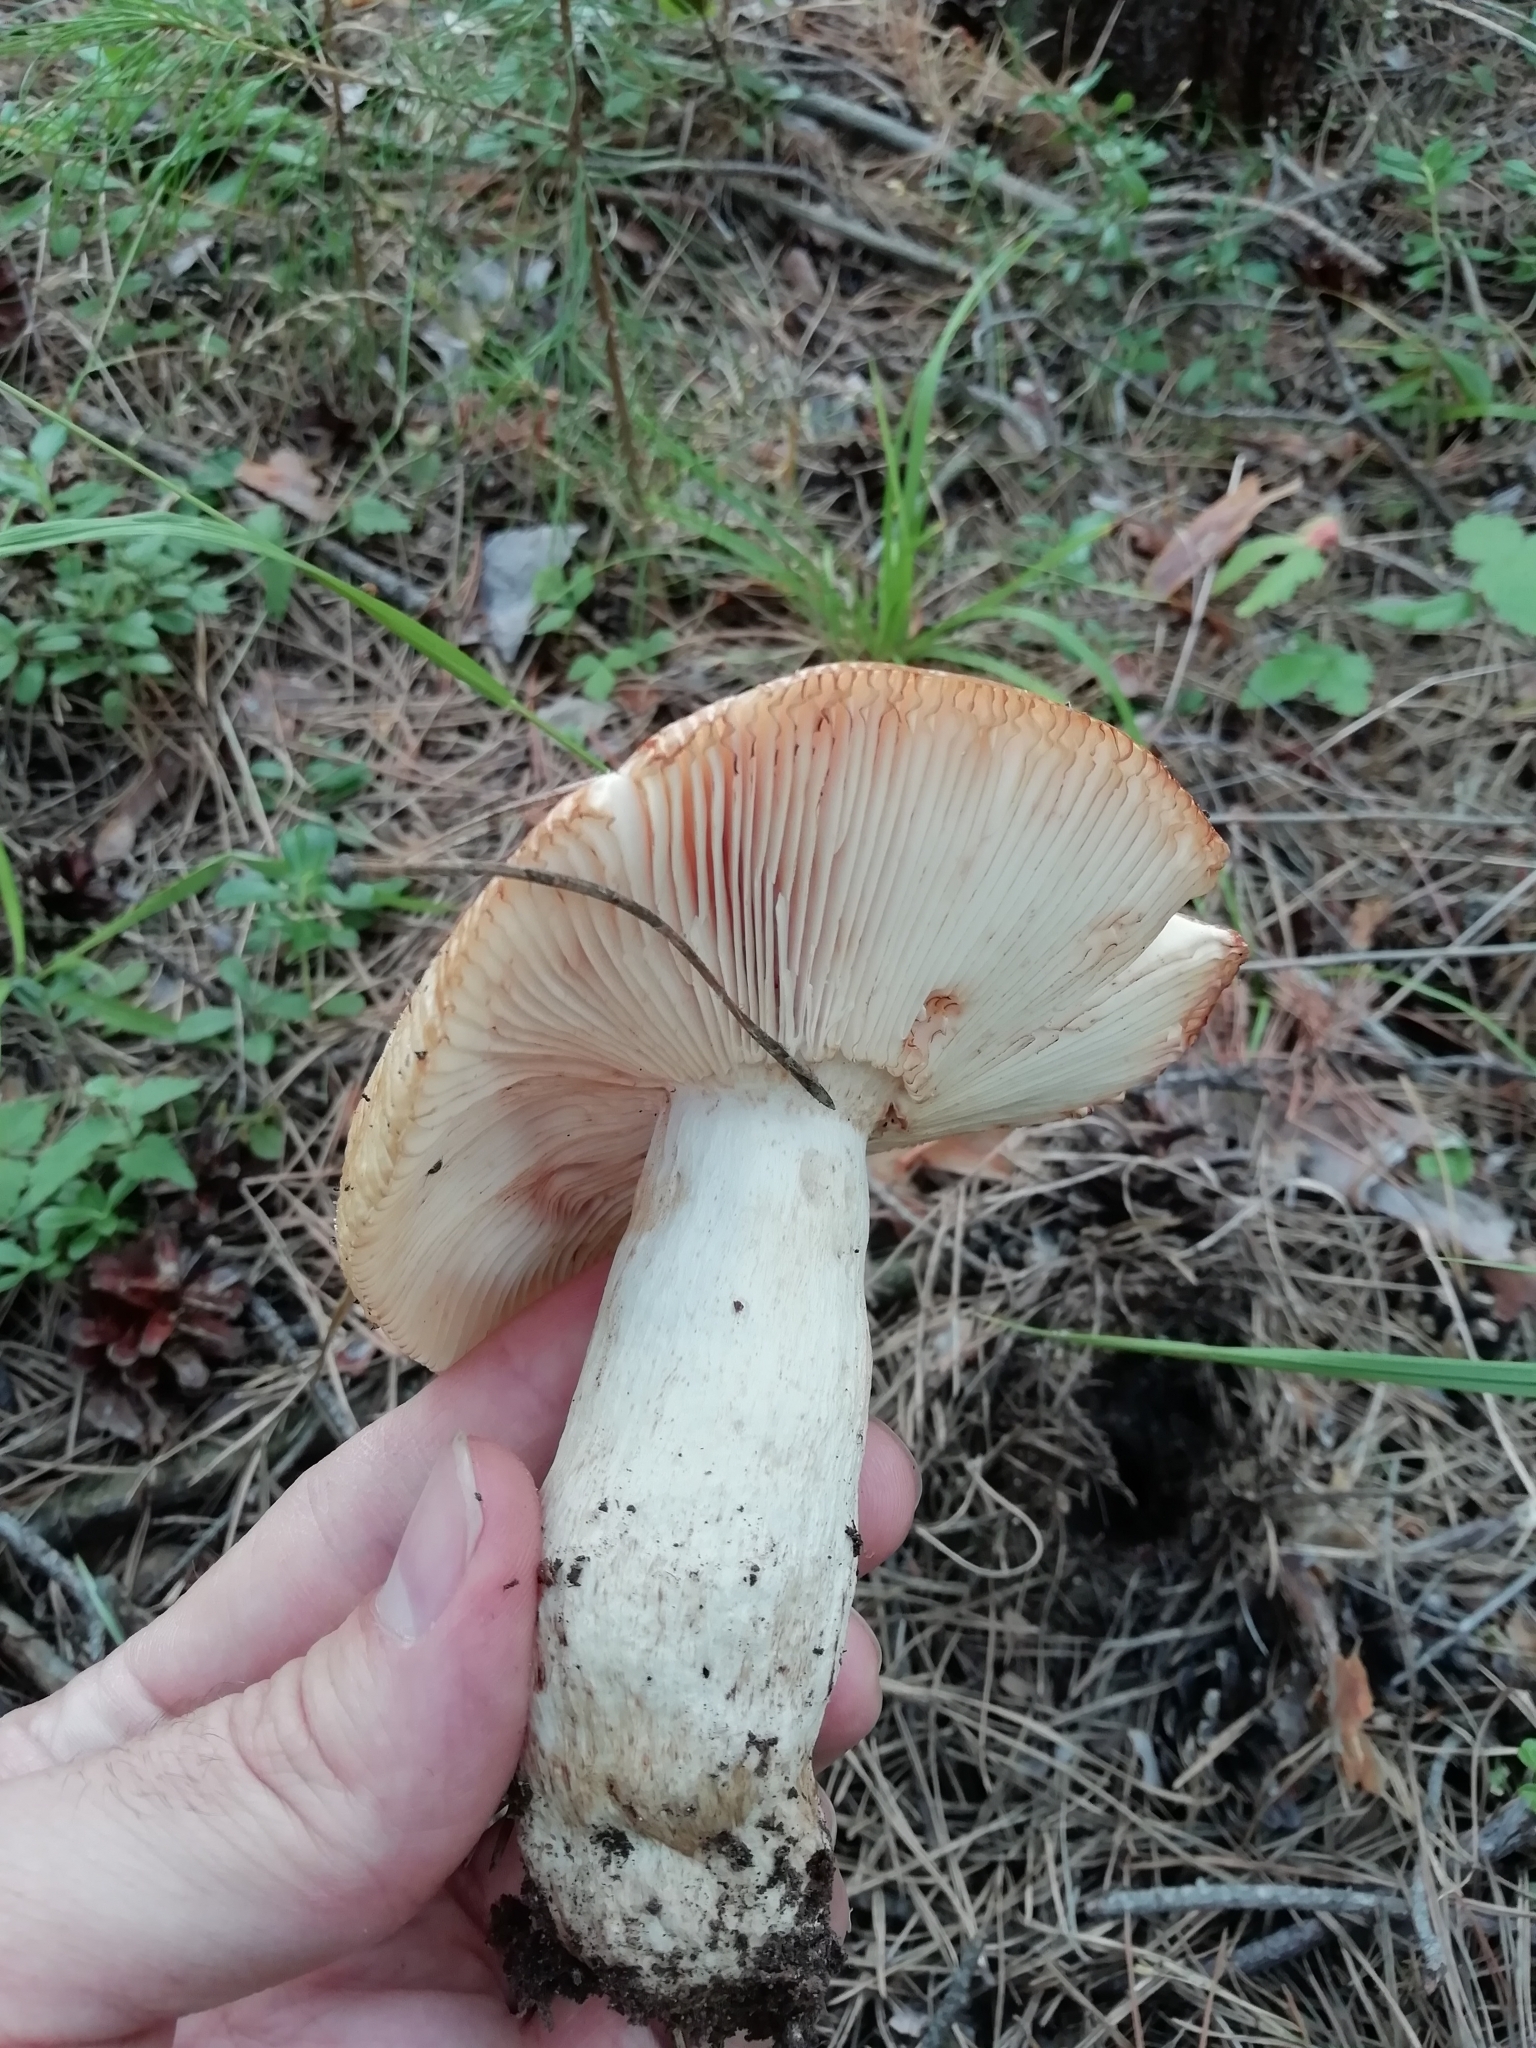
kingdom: Fungi
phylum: Basidiomycota
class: Agaricomycetes
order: Russulales
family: Russulaceae
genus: Russula
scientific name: Russula foetens
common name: Foetid russula
